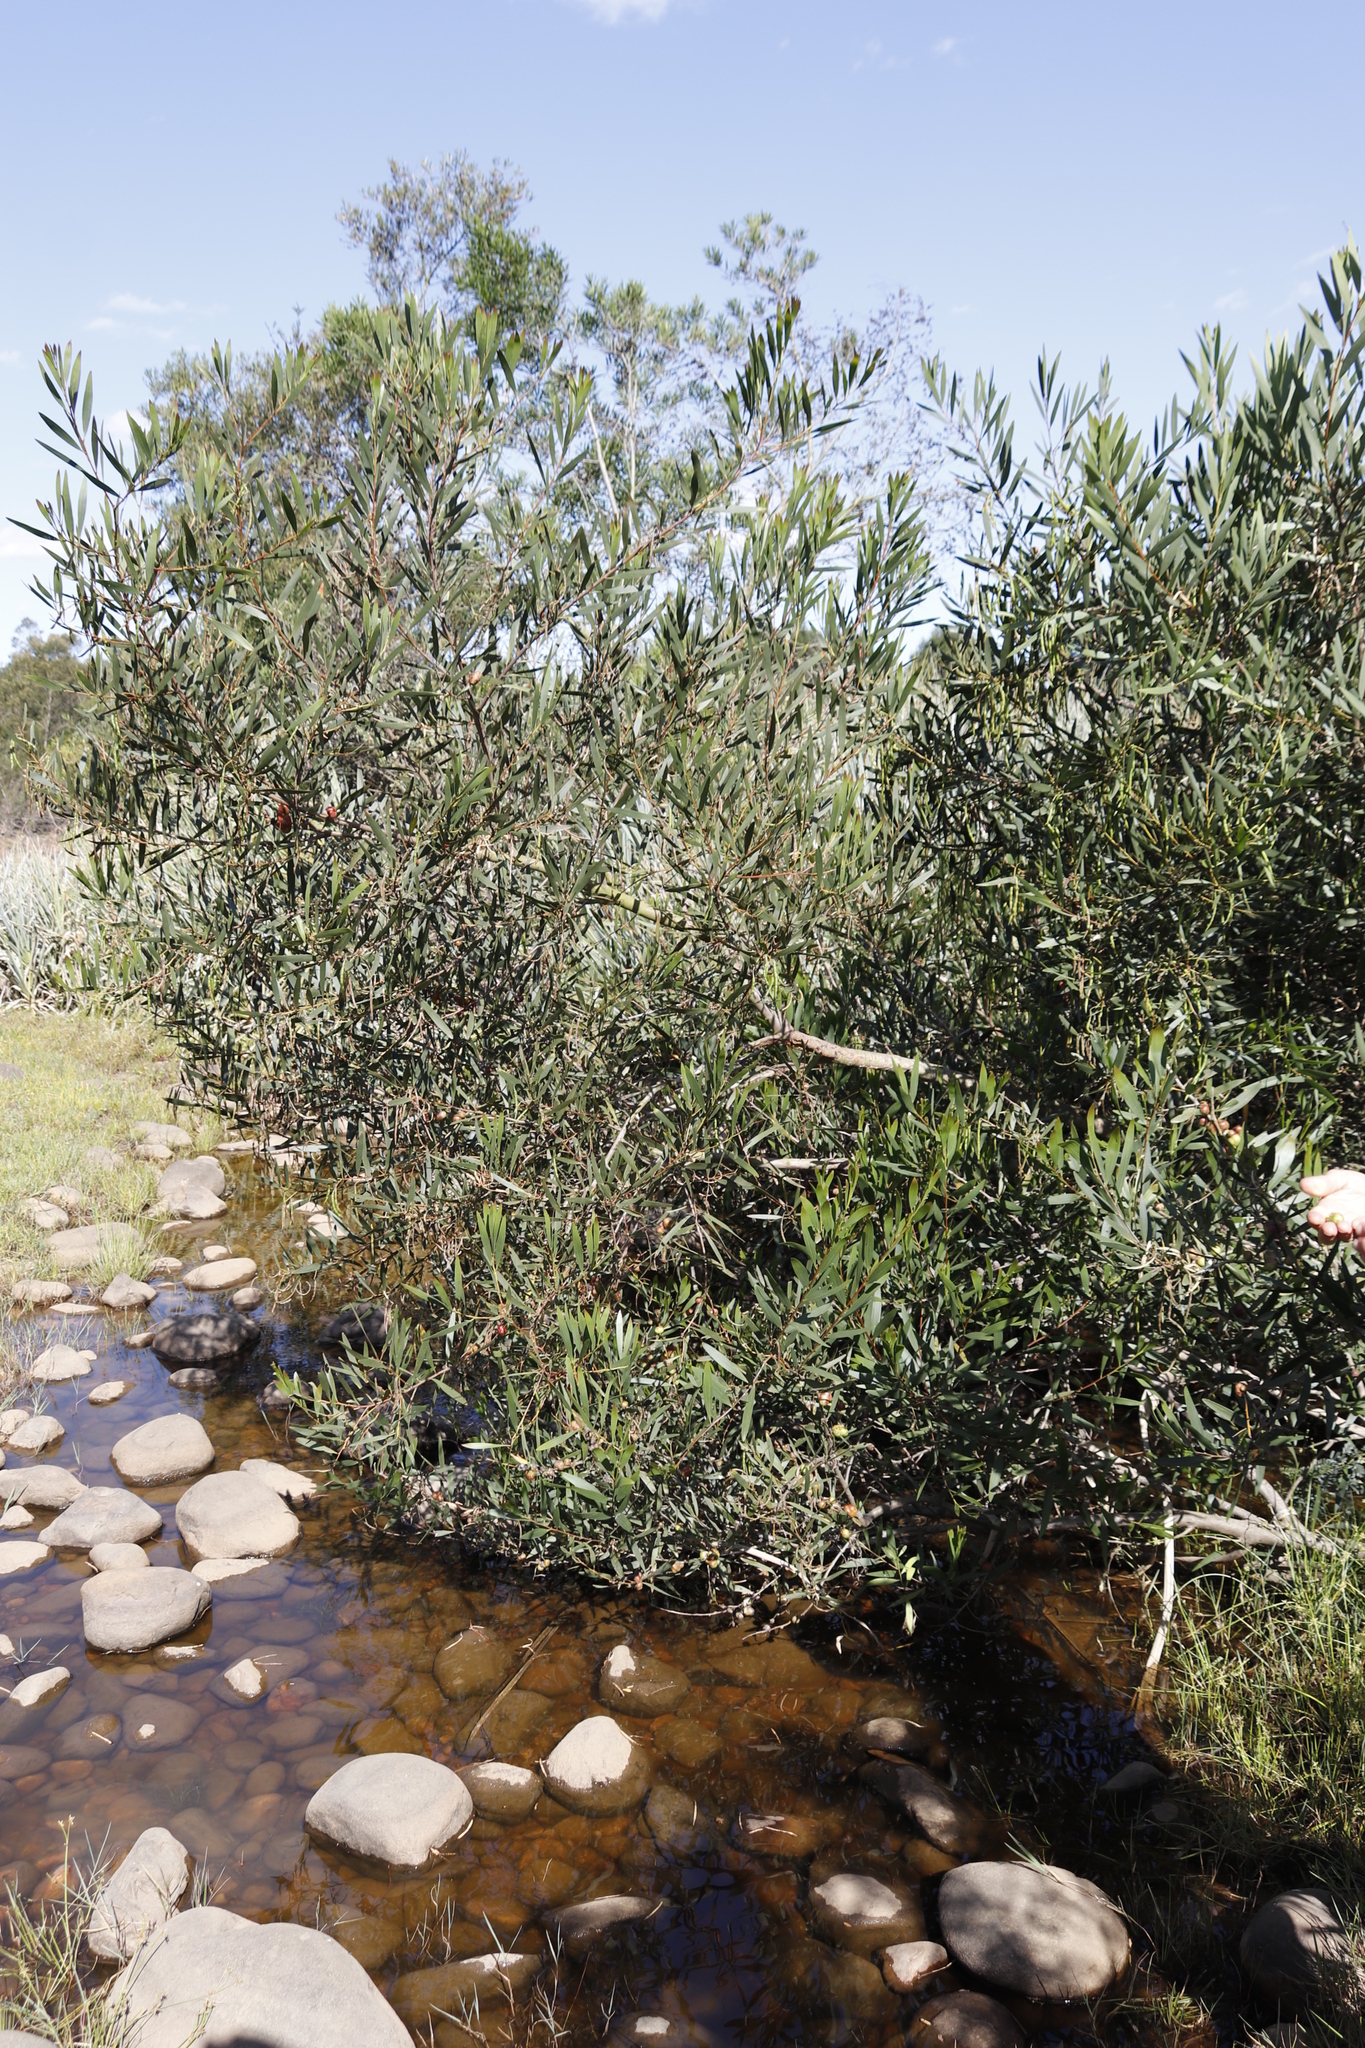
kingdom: Plantae
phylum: Tracheophyta
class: Magnoliopsida
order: Fabales
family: Fabaceae
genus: Acacia
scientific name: Acacia longifolia
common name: Sydney golden wattle
